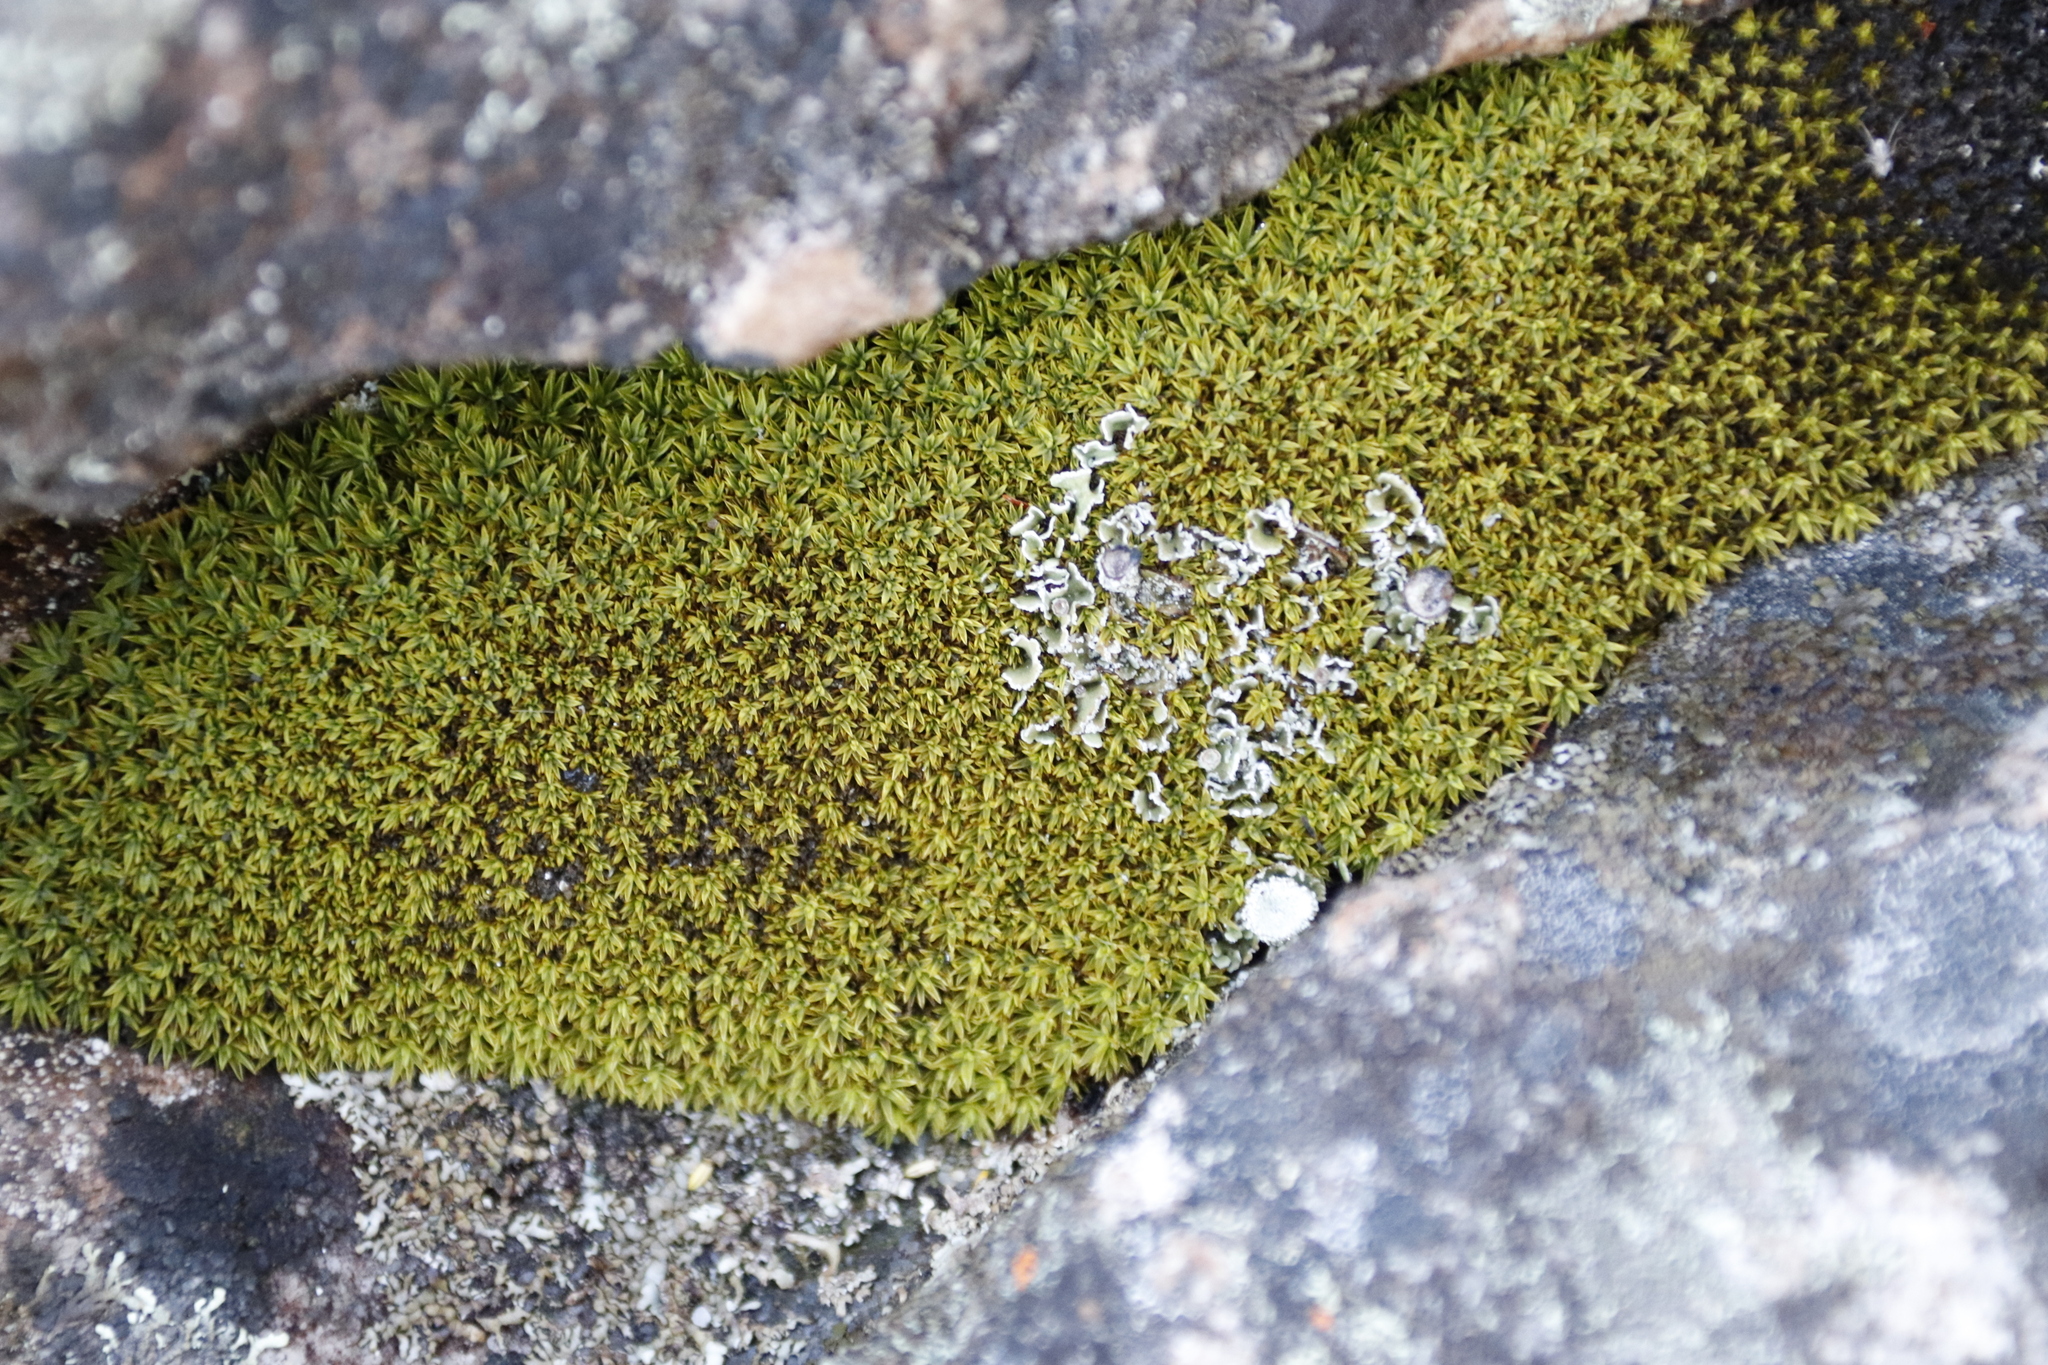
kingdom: Plantae
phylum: Bryophyta
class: Bryopsida
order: Dicranales
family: Hypodontiaceae
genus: Hypodontium
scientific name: Hypodontium pomiforme
